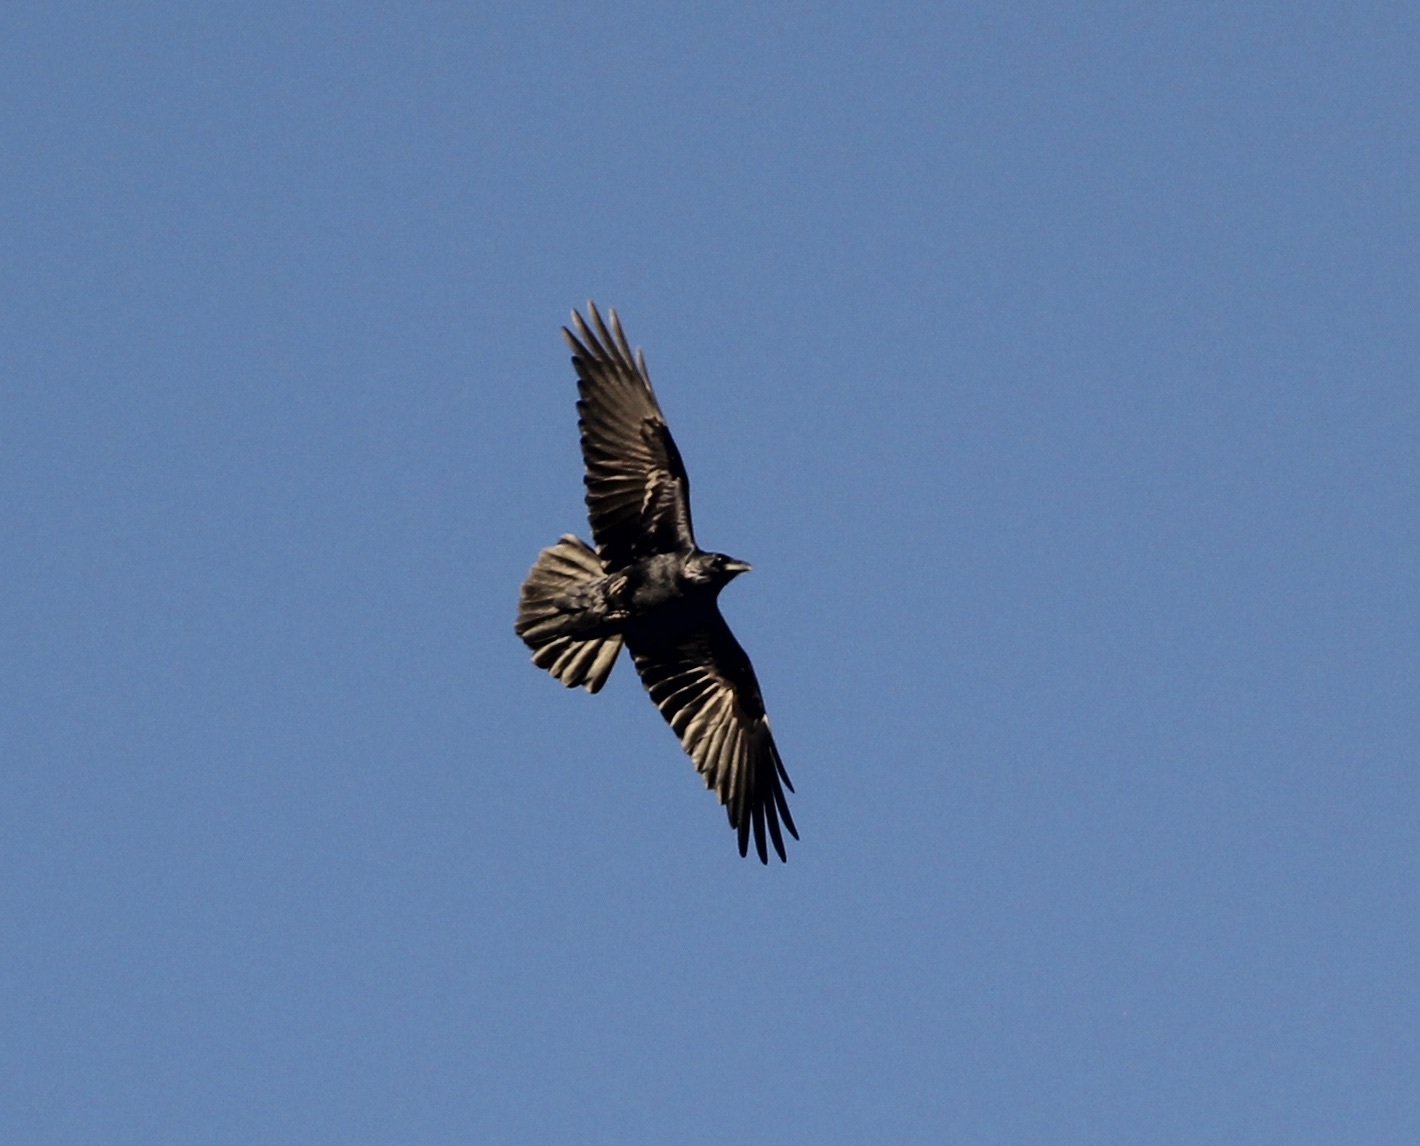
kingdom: Animalia
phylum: Chordata
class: Aves
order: Passeriformes
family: Corvidae
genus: Corvus
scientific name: Corvus corax
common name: Common raven
